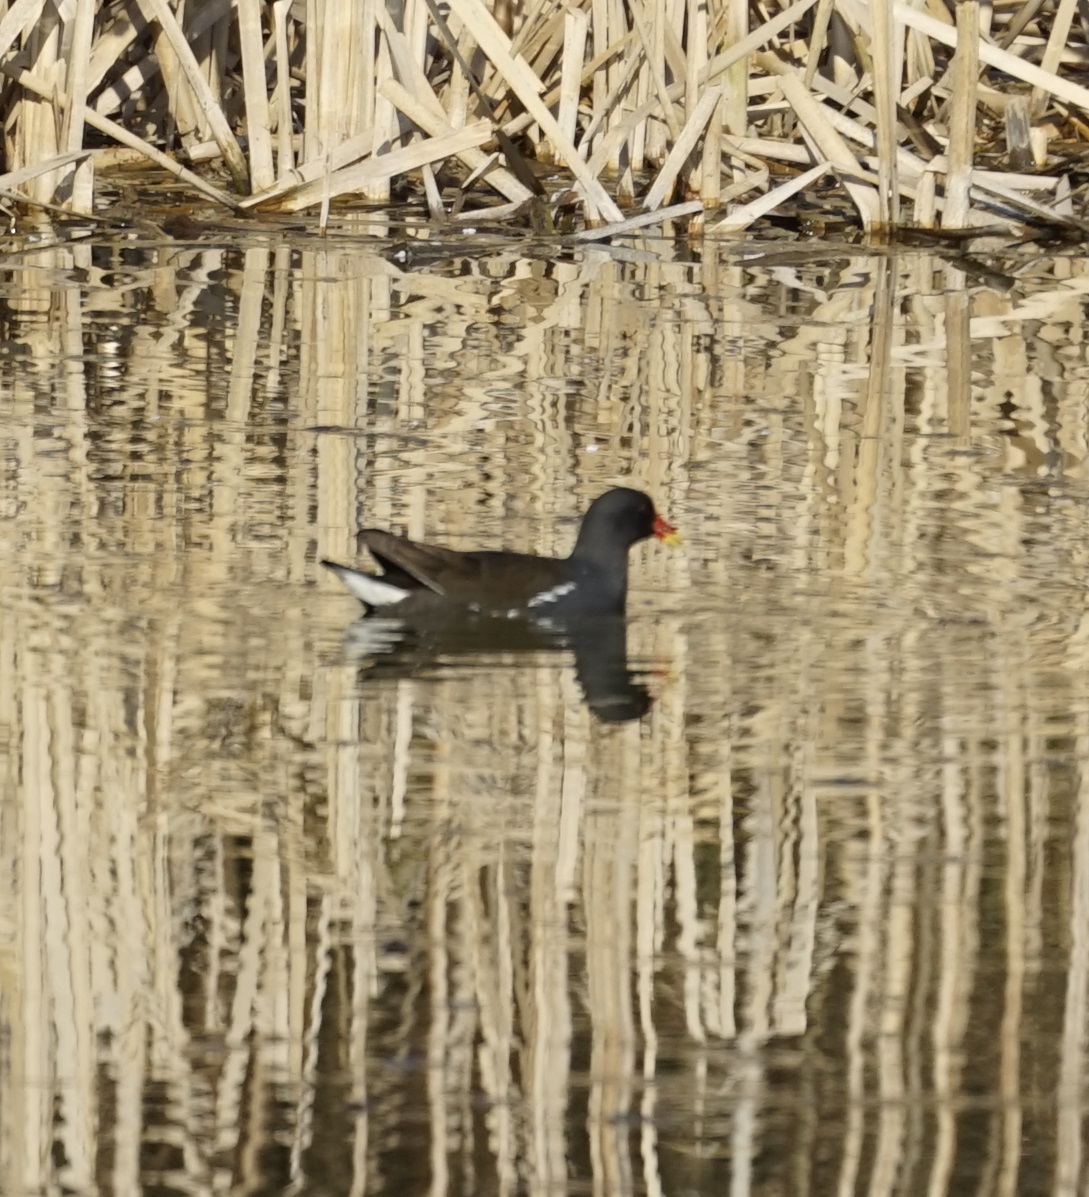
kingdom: Animalia
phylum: Chordata
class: Aves
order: Gruiformes
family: Rallidae
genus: Gallinula
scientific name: Gallinula chloropus
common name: Common moorhen
